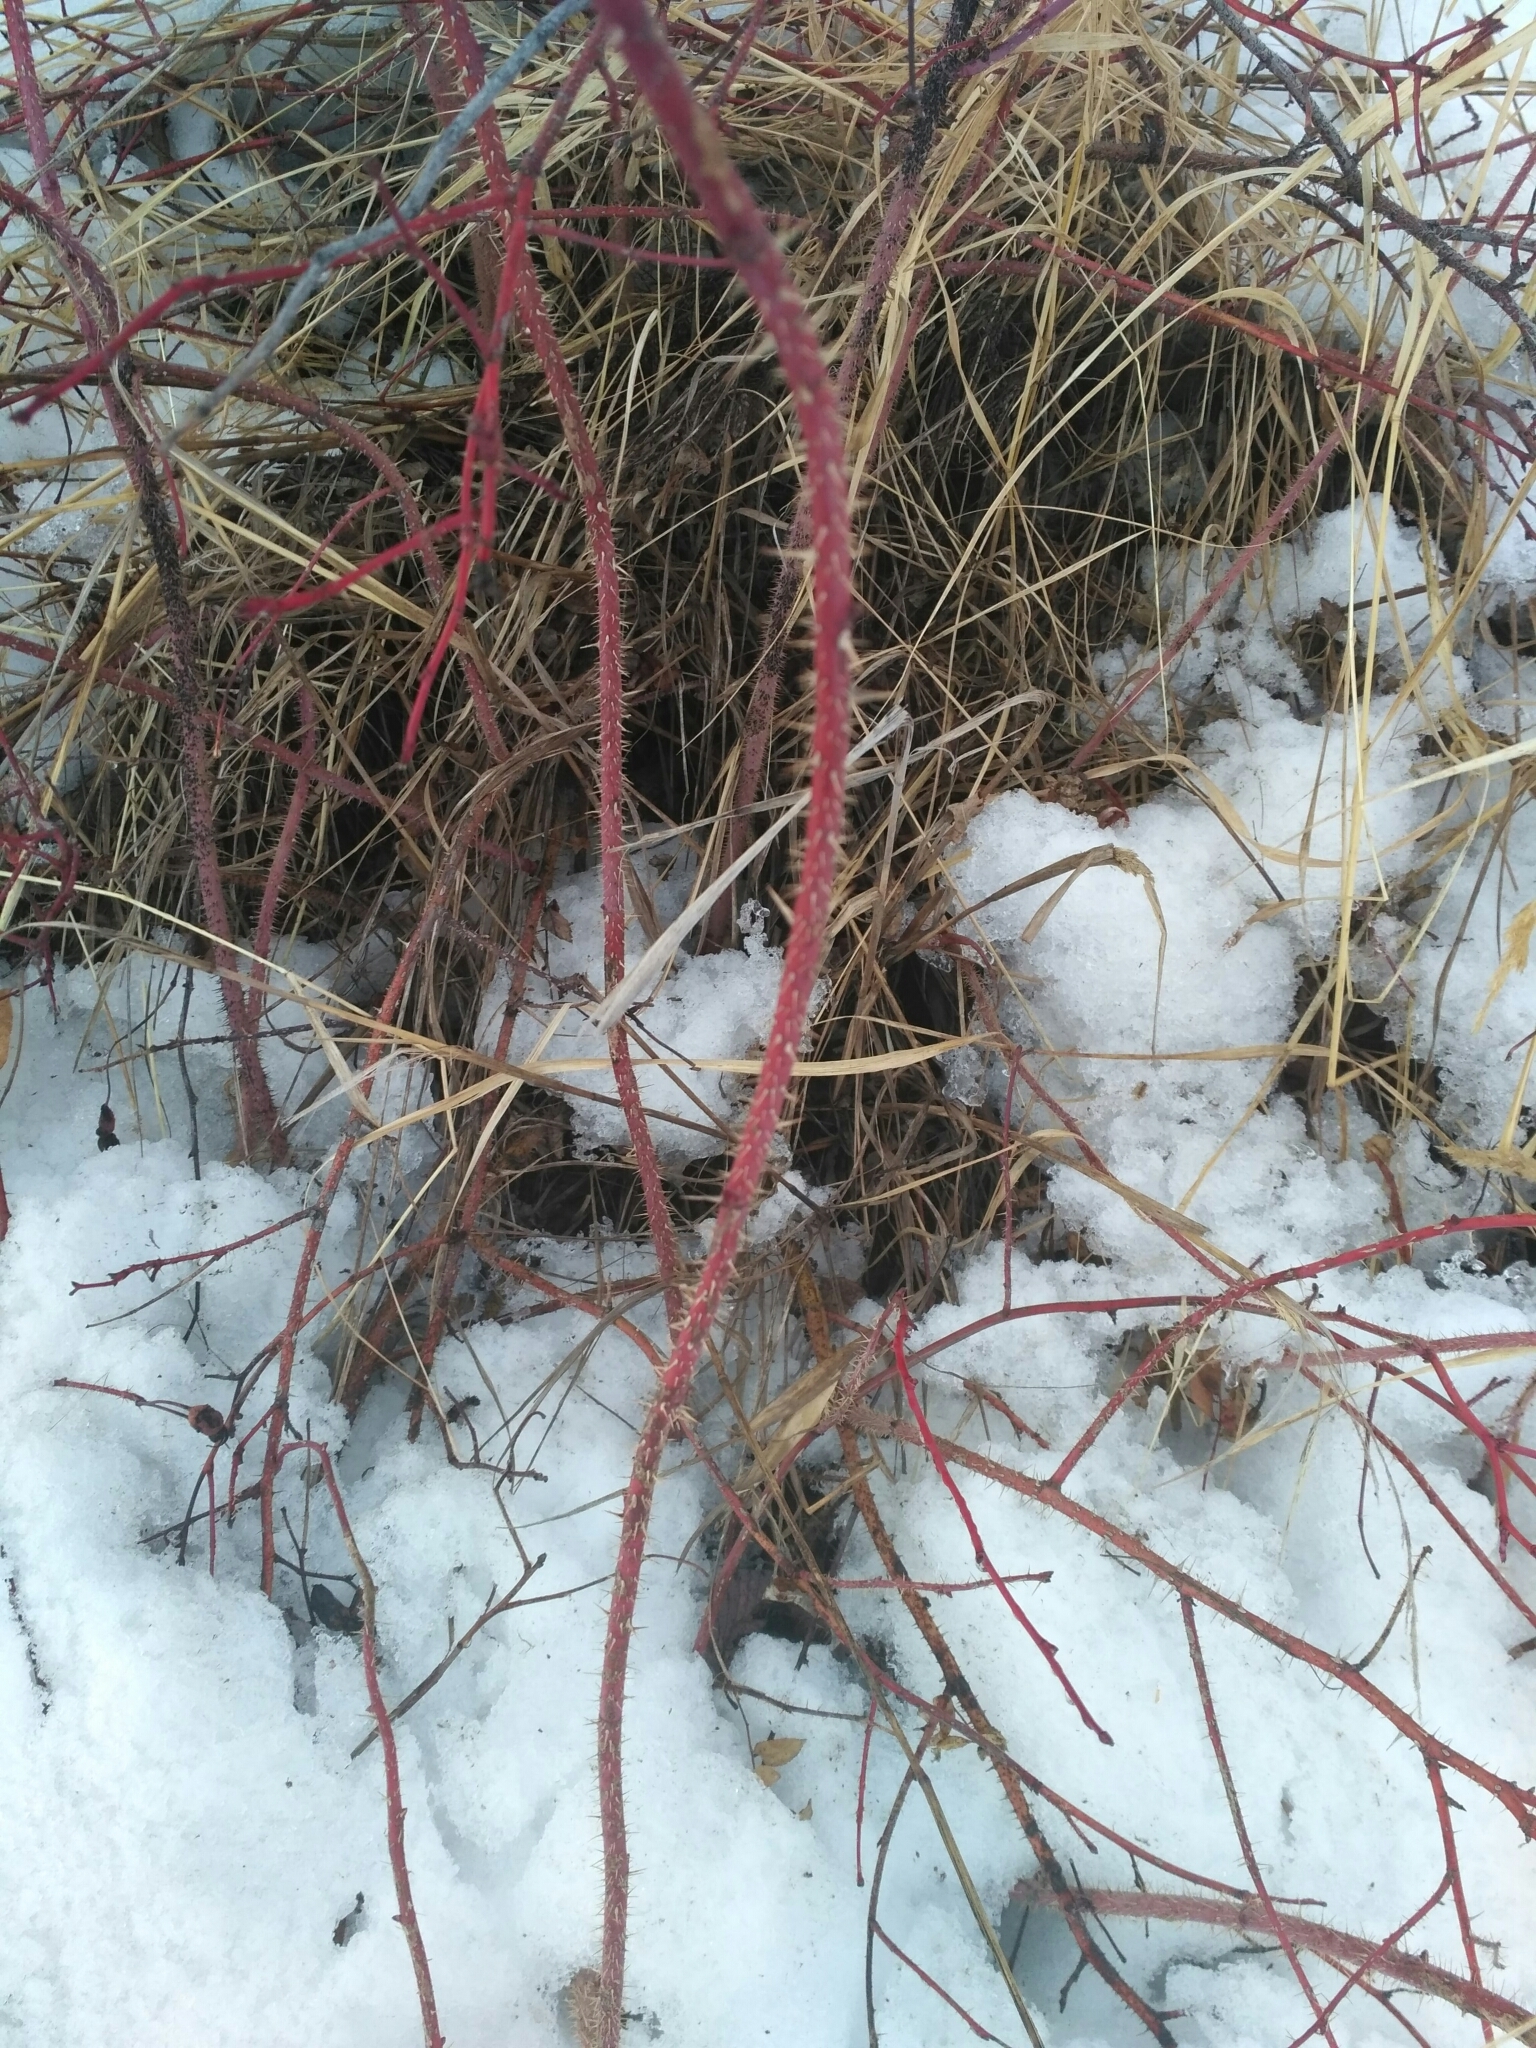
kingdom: Plantae
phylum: Tracheophyta
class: Magnoliopsida
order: Rosales
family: Rosaceae
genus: Rosa
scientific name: Rosa acicularis
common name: Prickly rose
